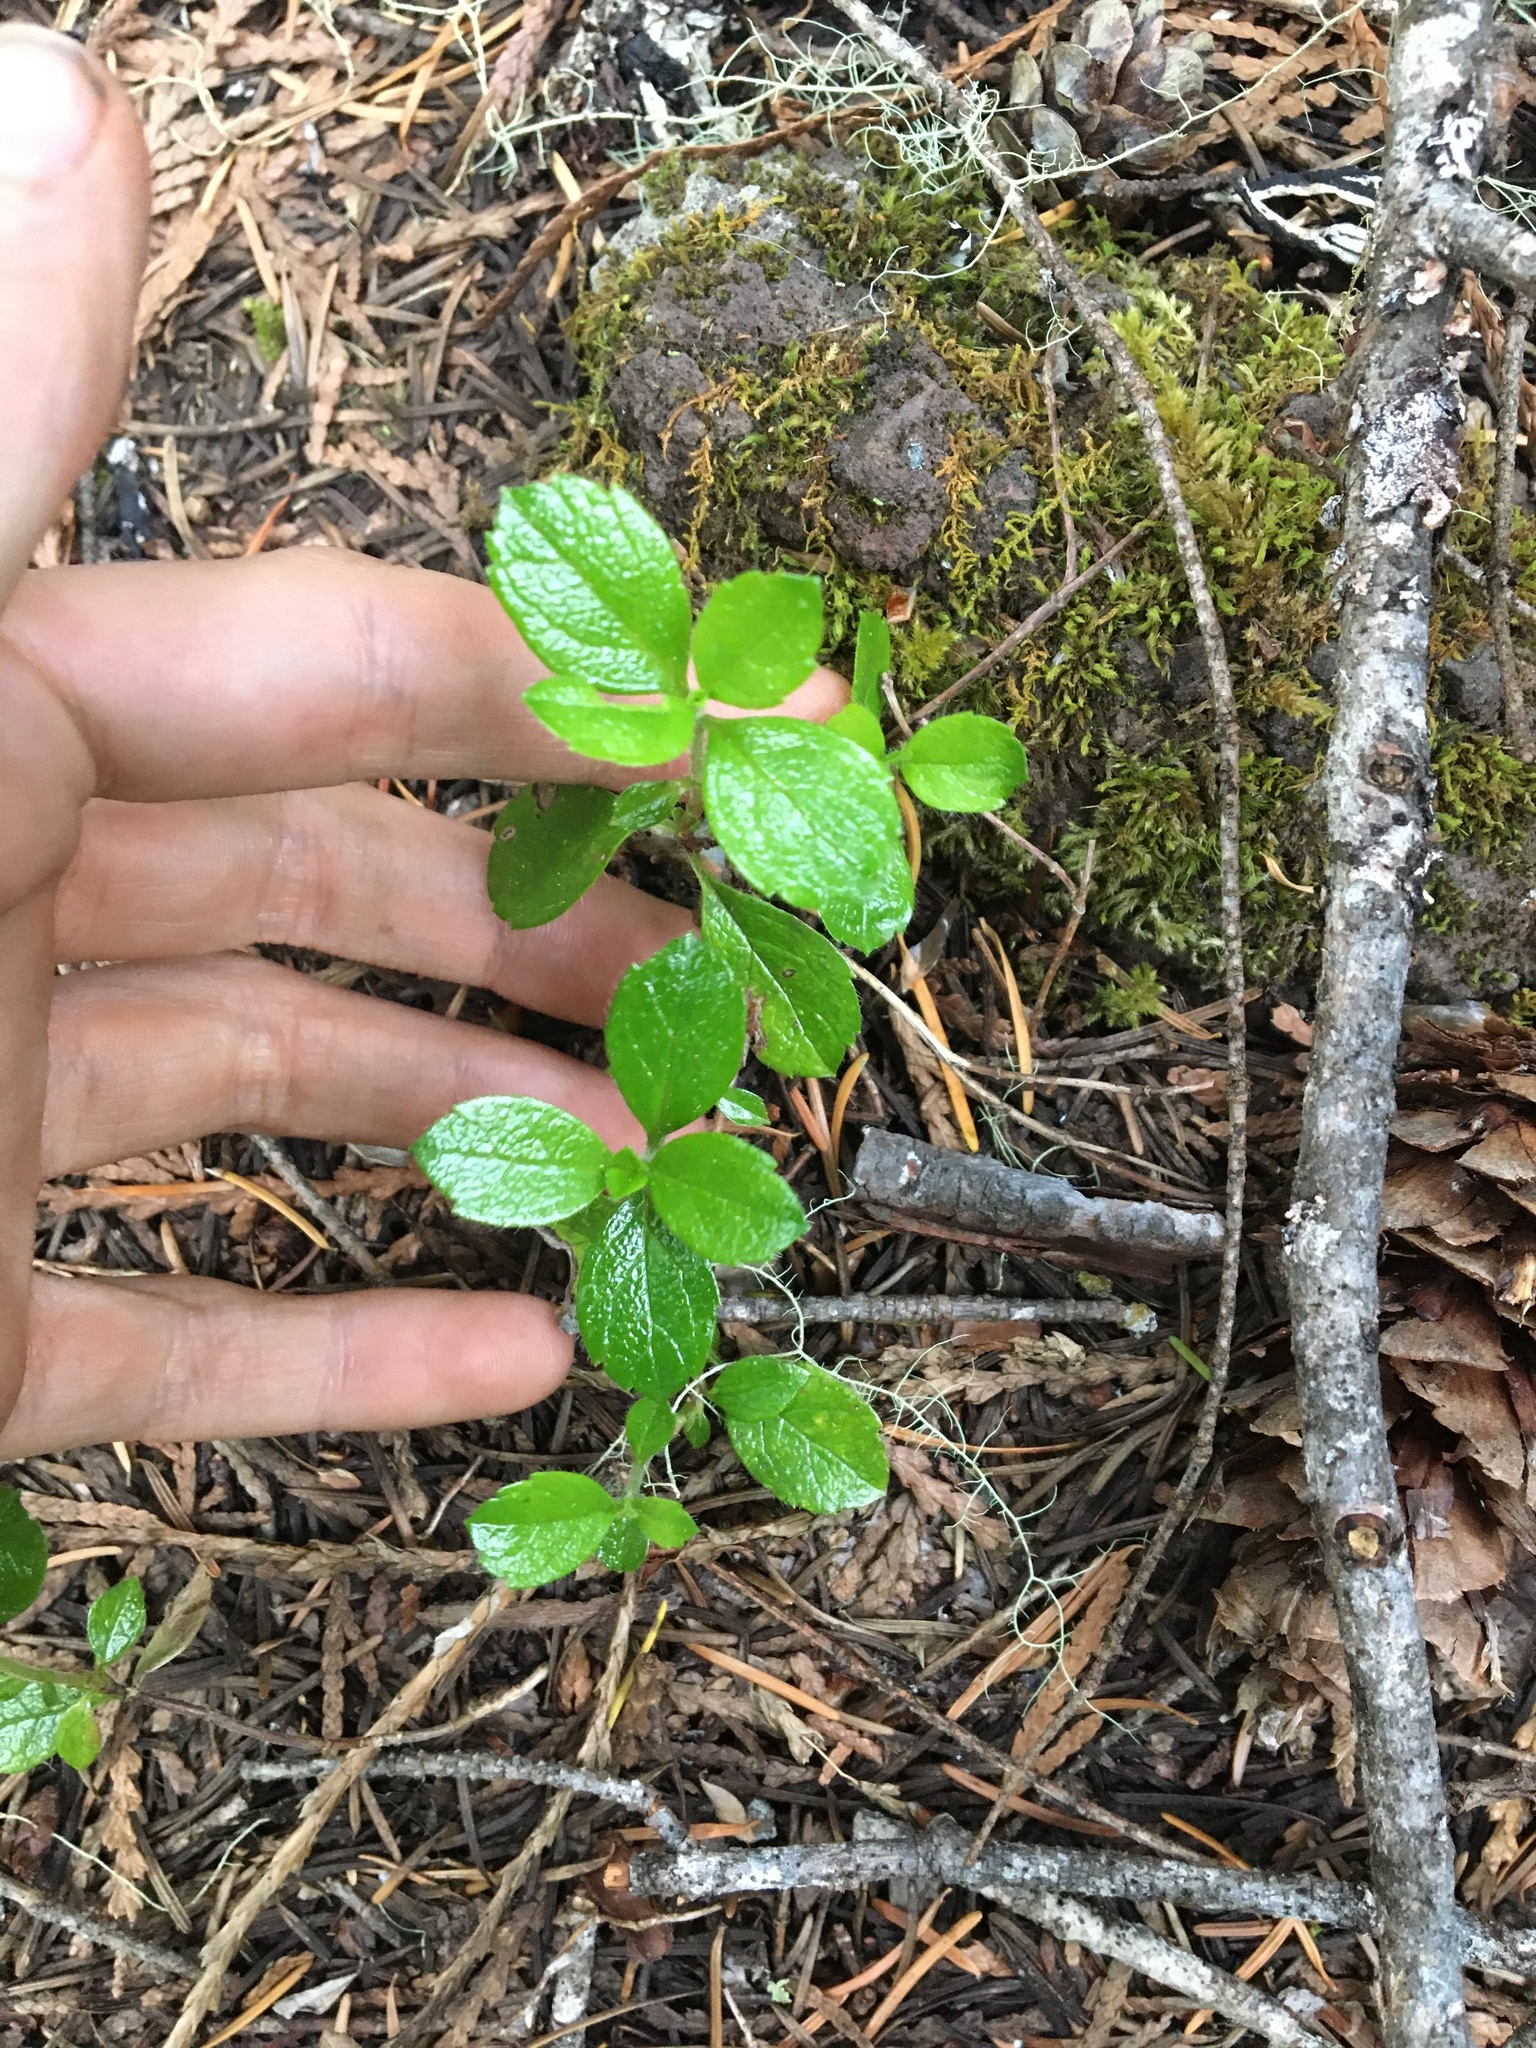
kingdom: Plantae
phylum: Tracheophyta
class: Magnoliopsida
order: Dipsacales
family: Caprifoliaceae
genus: Linnaea
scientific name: Linnaea borealis
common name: Twinflower
